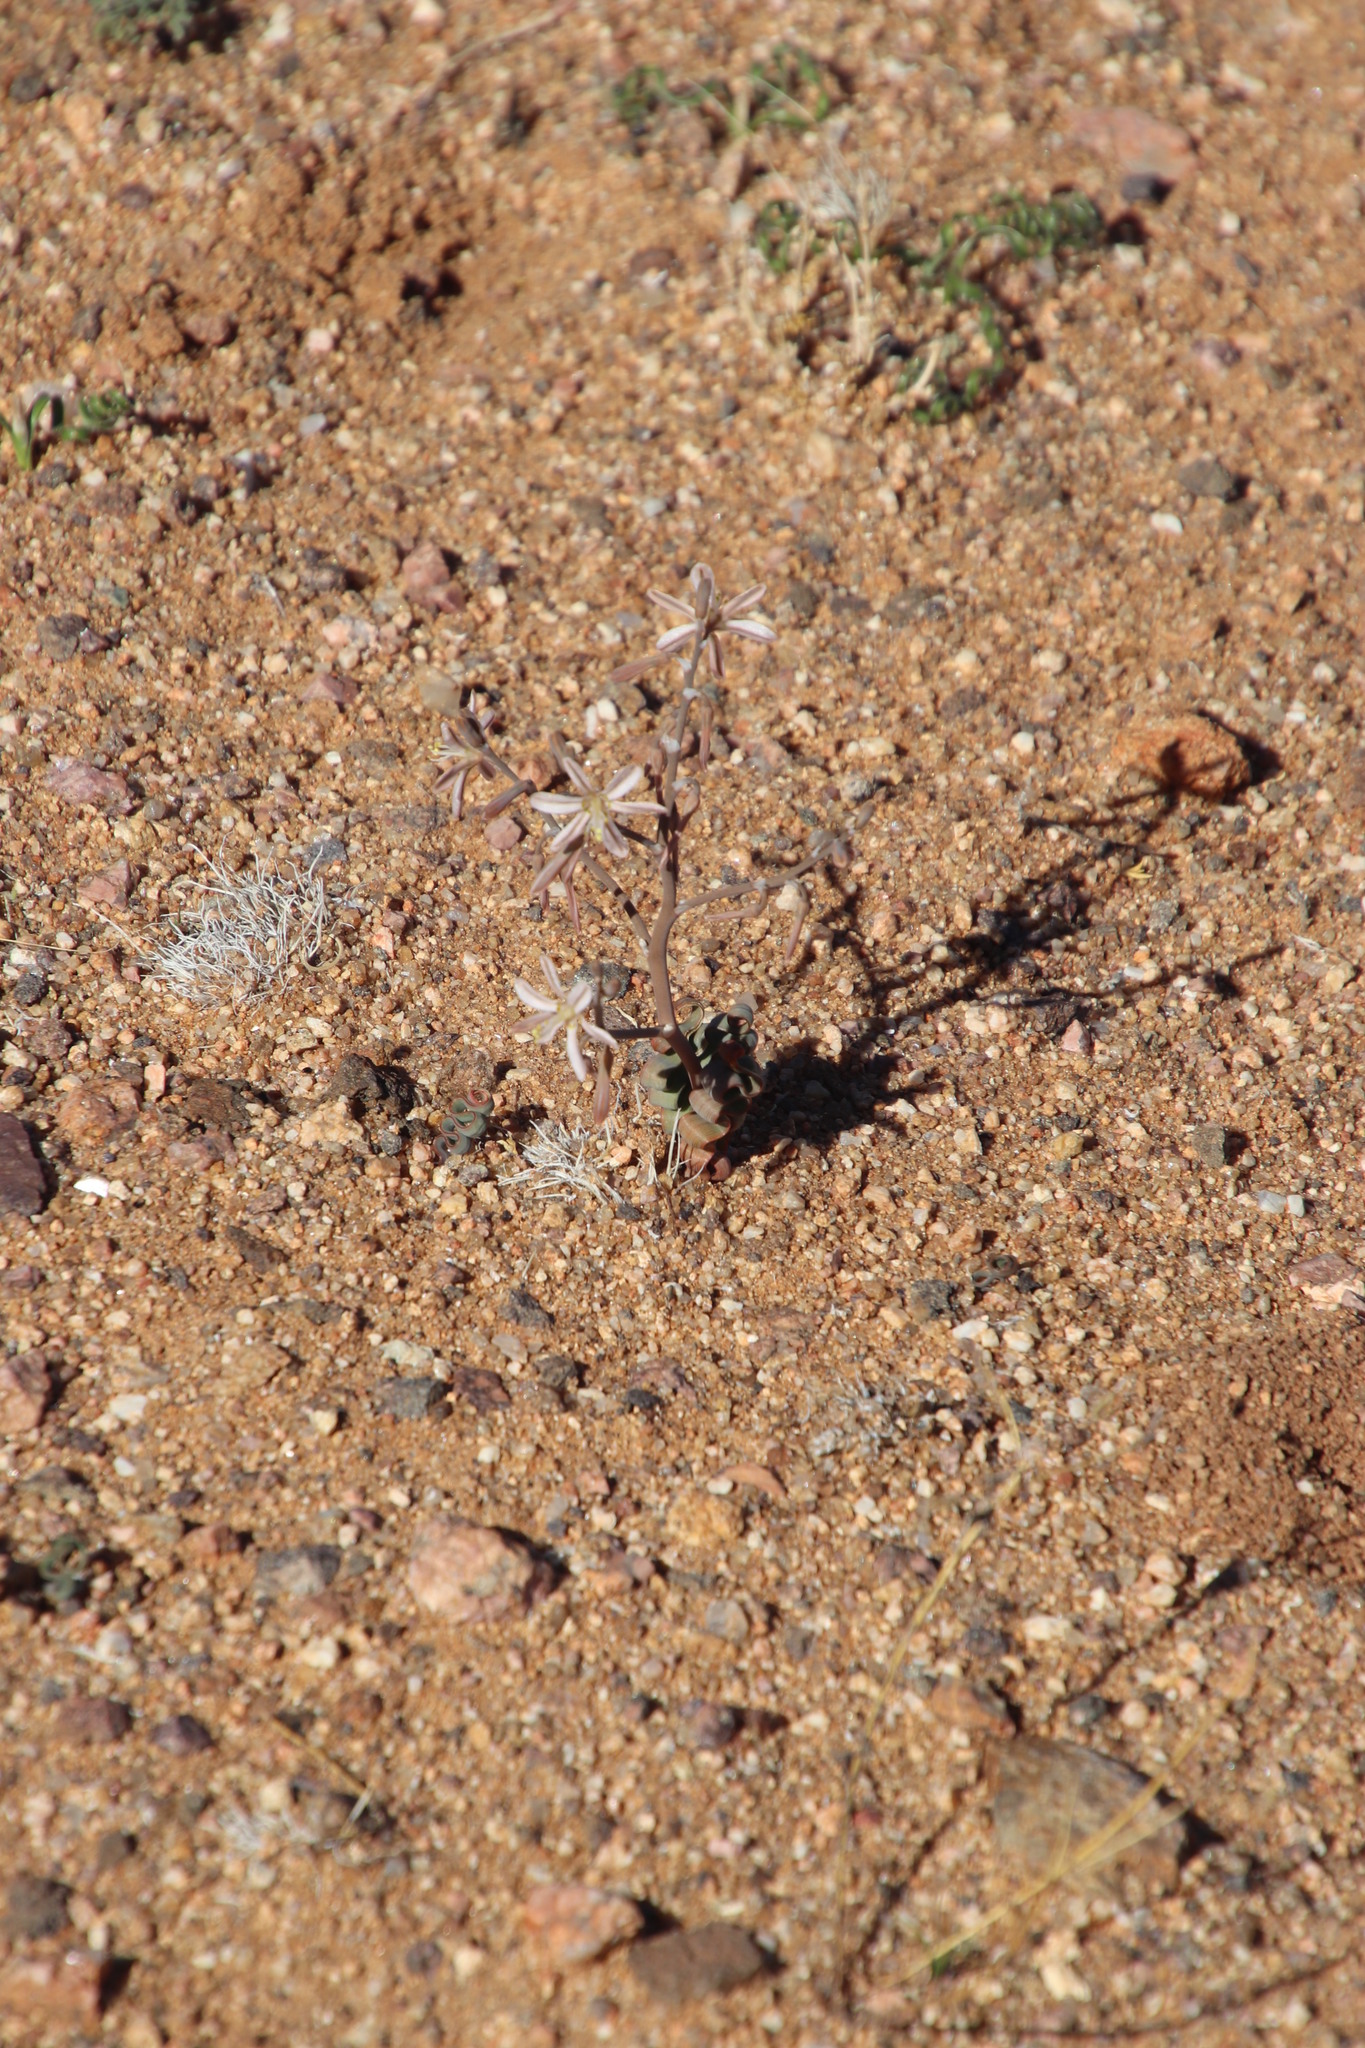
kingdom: Plantae
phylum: Tracheophyta
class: Liliopsida
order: Asparagales
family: Asphodelaceae
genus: Trachyandra
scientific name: Trachyandra tortilis
